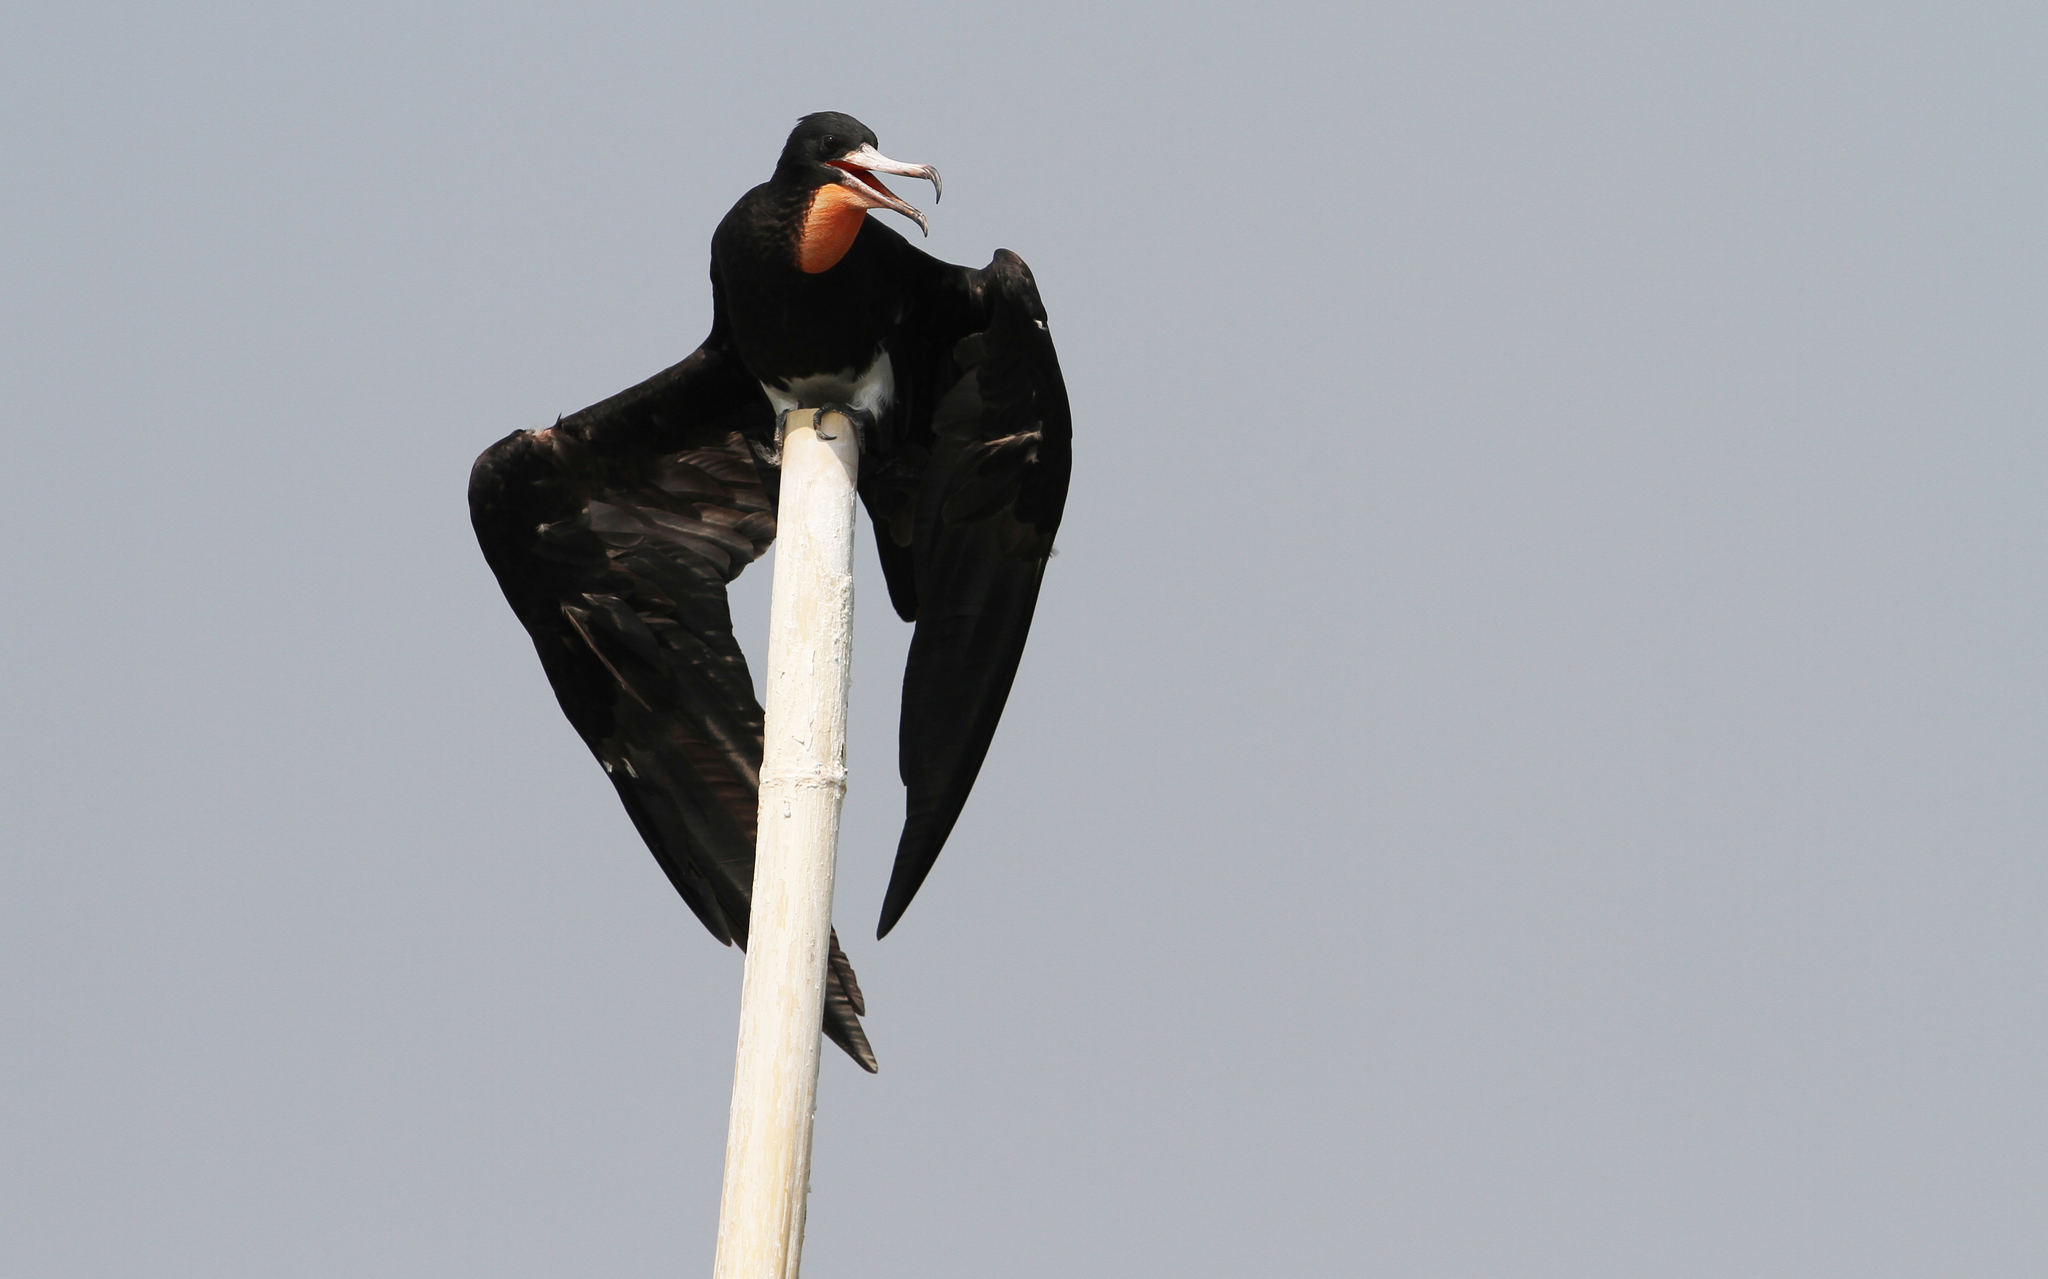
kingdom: Animalia
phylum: Chordata
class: Aves
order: Suliformes
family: Fregatidae
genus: Fregata
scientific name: Fregata andrewsi
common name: Christmas frigatebird
